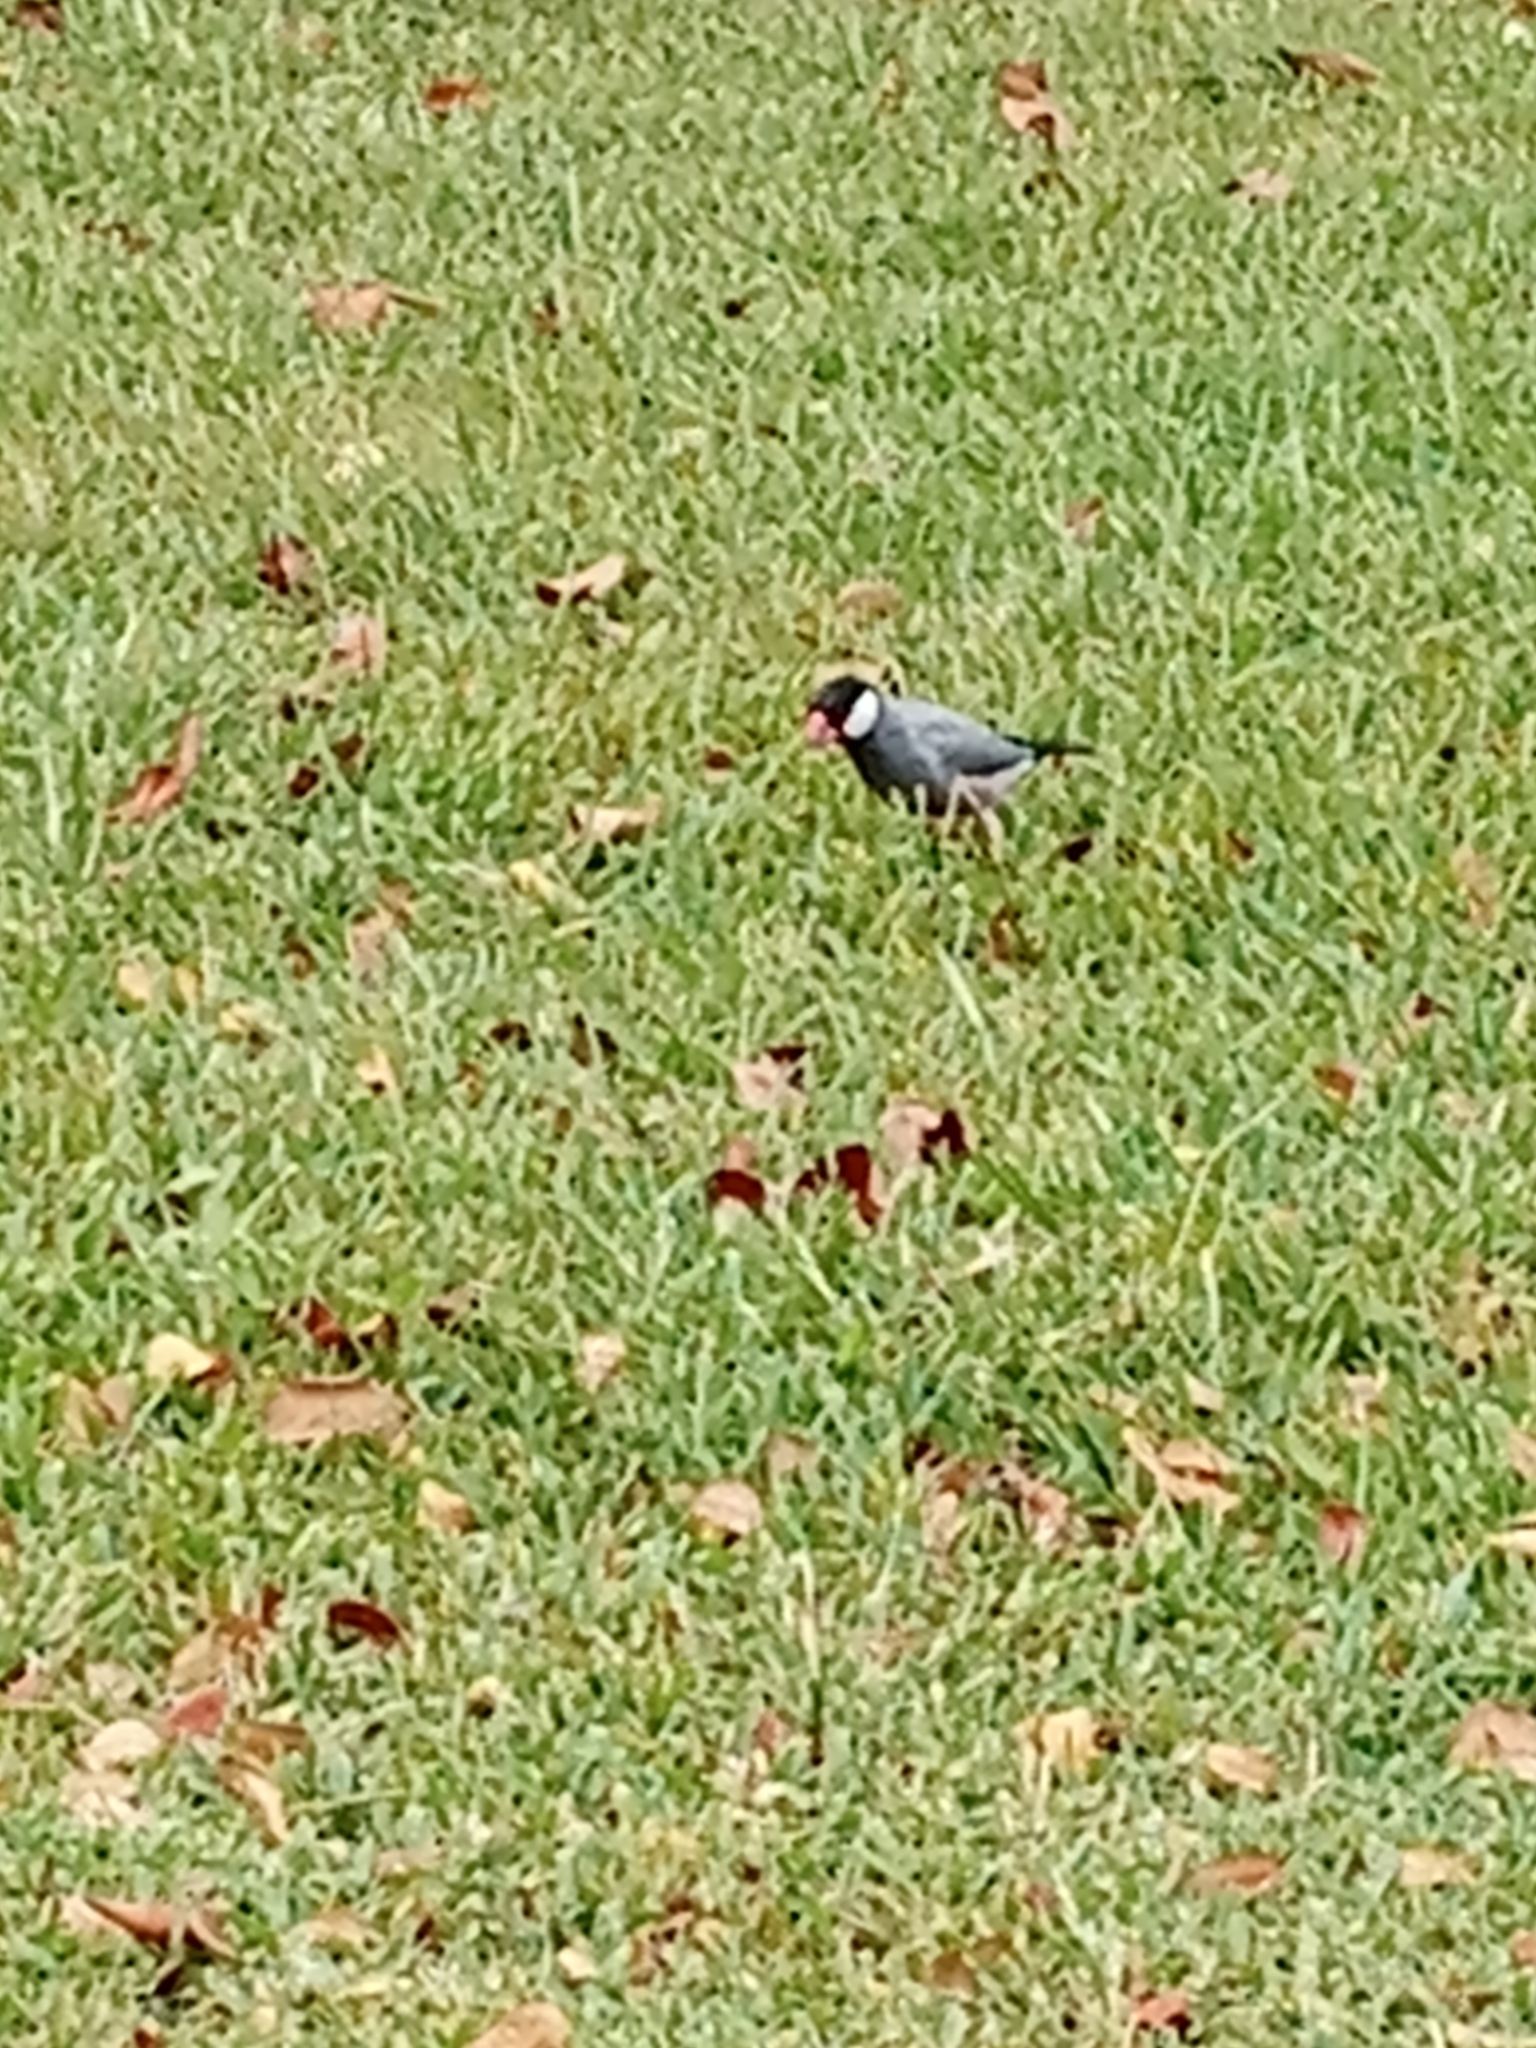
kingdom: Animalia
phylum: Chordata
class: Aves
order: Passeriformes
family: Estrildidae
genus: Lonchura
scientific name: Lonchura oryzivora
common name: Java sparrow
